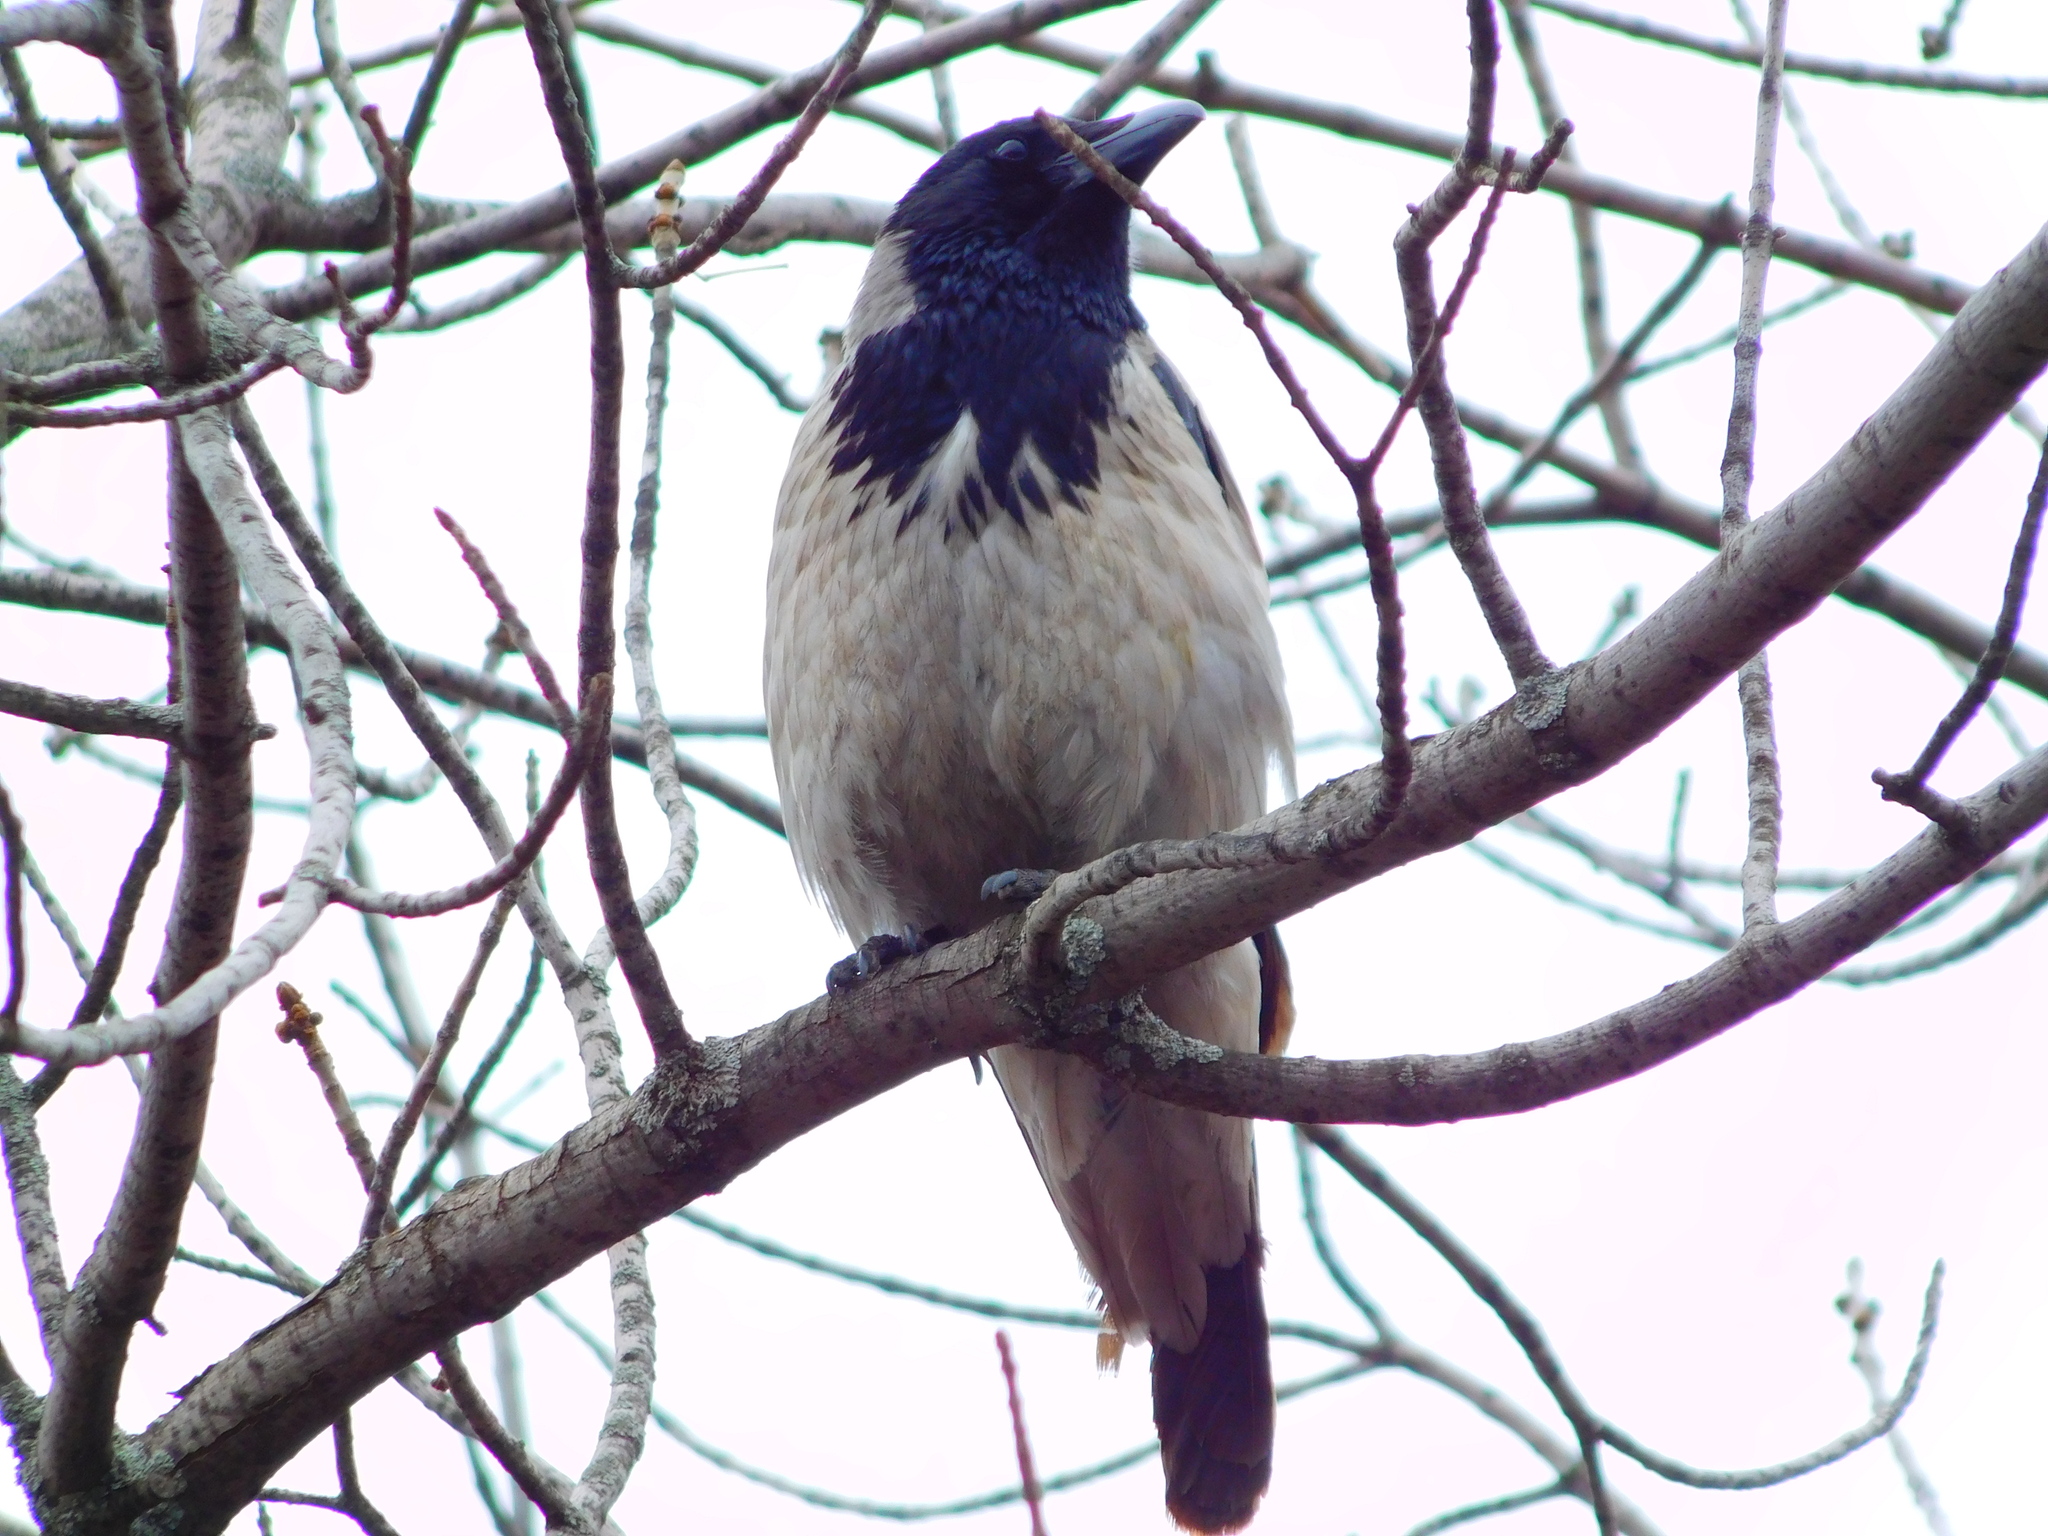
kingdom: Animalia
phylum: Chordata
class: Aves
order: Passeriformes
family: Corvidae
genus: Corvus
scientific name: Corvus cornix
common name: Hooded crow
